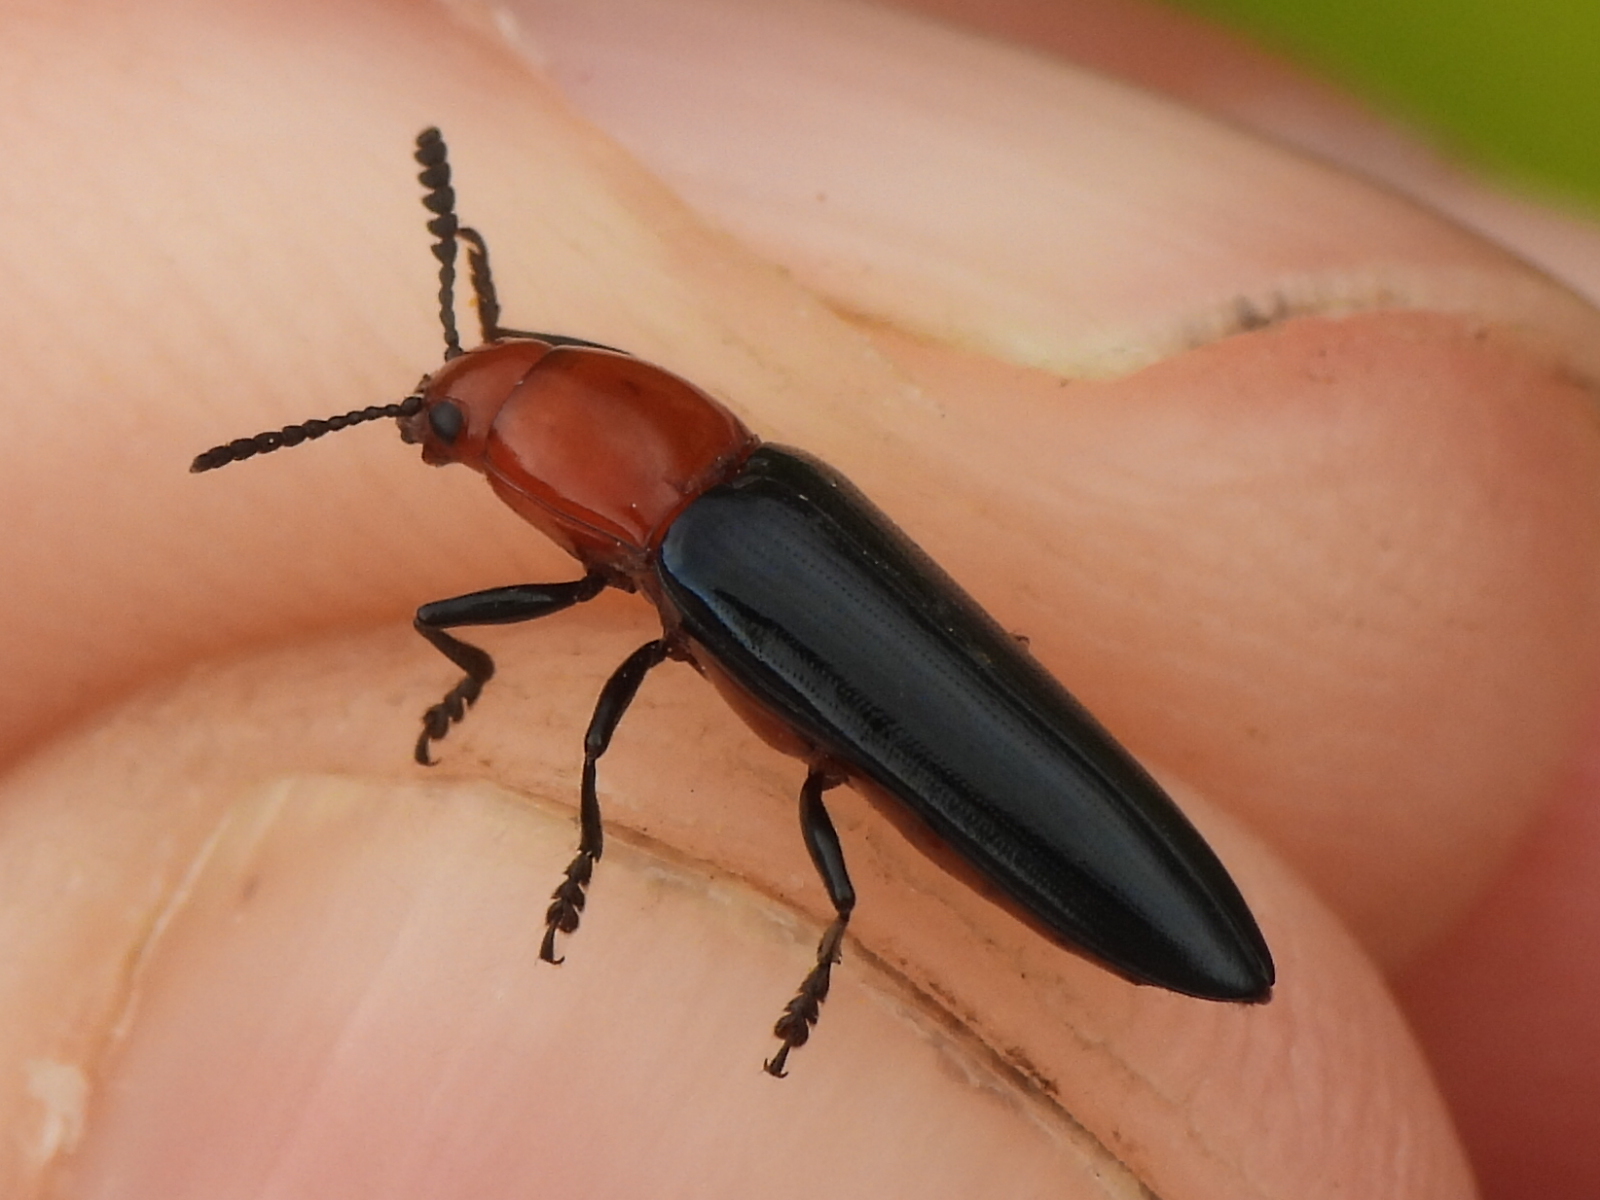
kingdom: Animalia
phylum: Arthropoda
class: Insecta
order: Coleoptera
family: Erotylidae
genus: Languria
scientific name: Languria laeta
